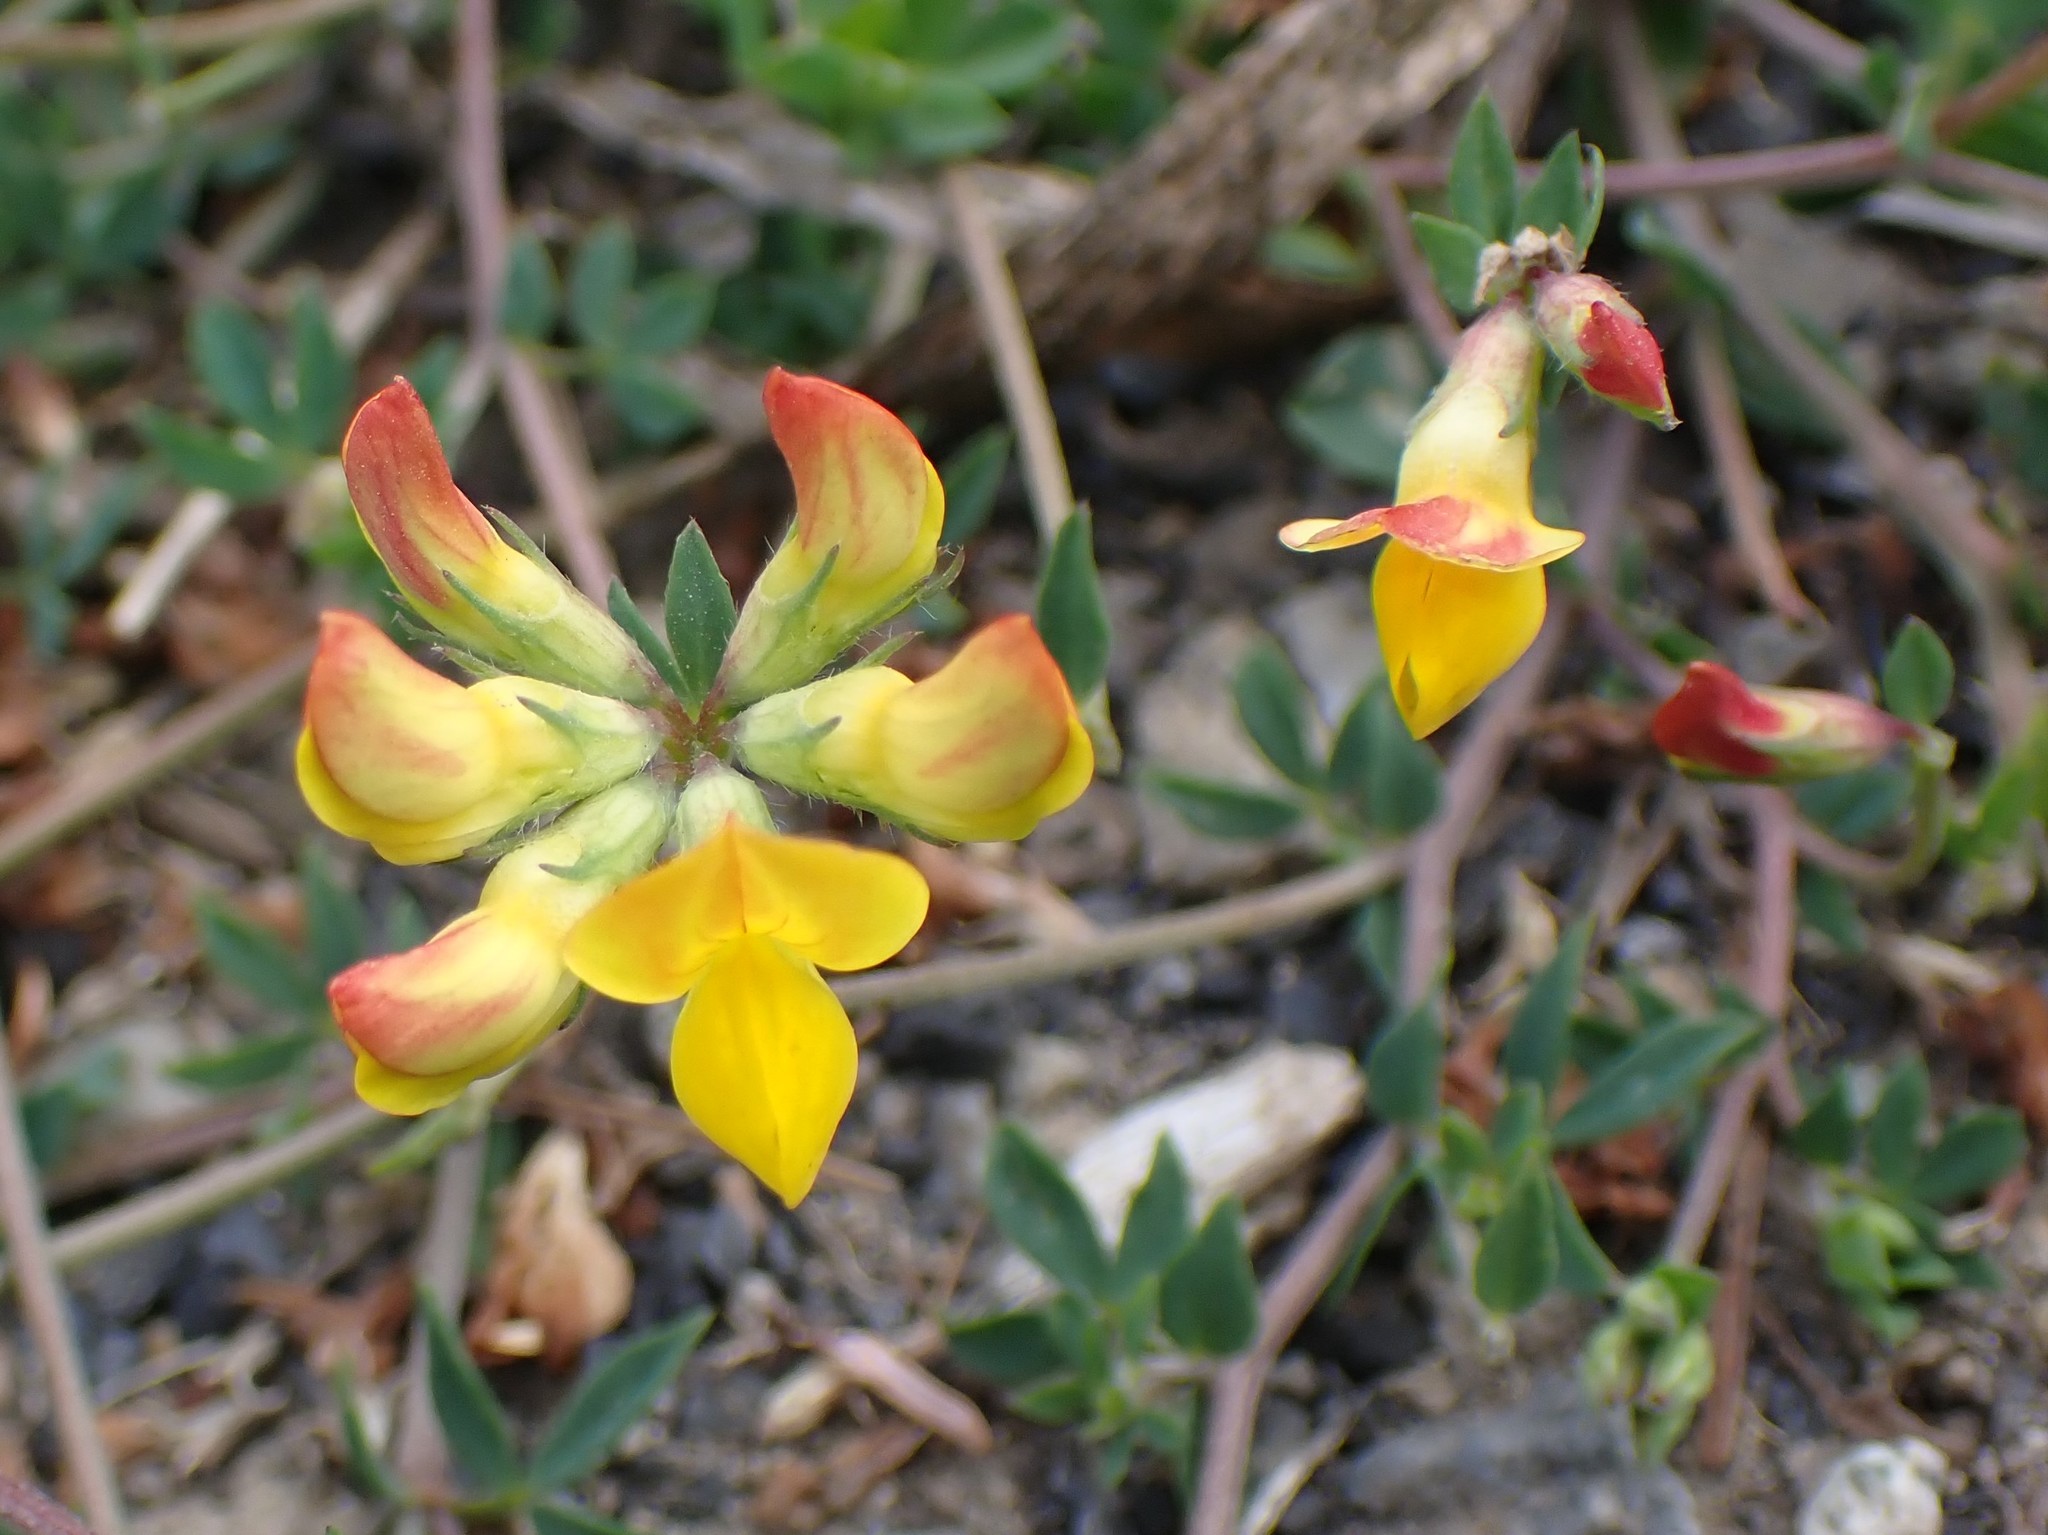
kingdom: Plantae
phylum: Tracheophyta
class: Magnoliopsida
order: Fabales
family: Fabaceae
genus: Lotus
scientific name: Lotus corniculatus
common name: Common bird's-foot-trefoil
